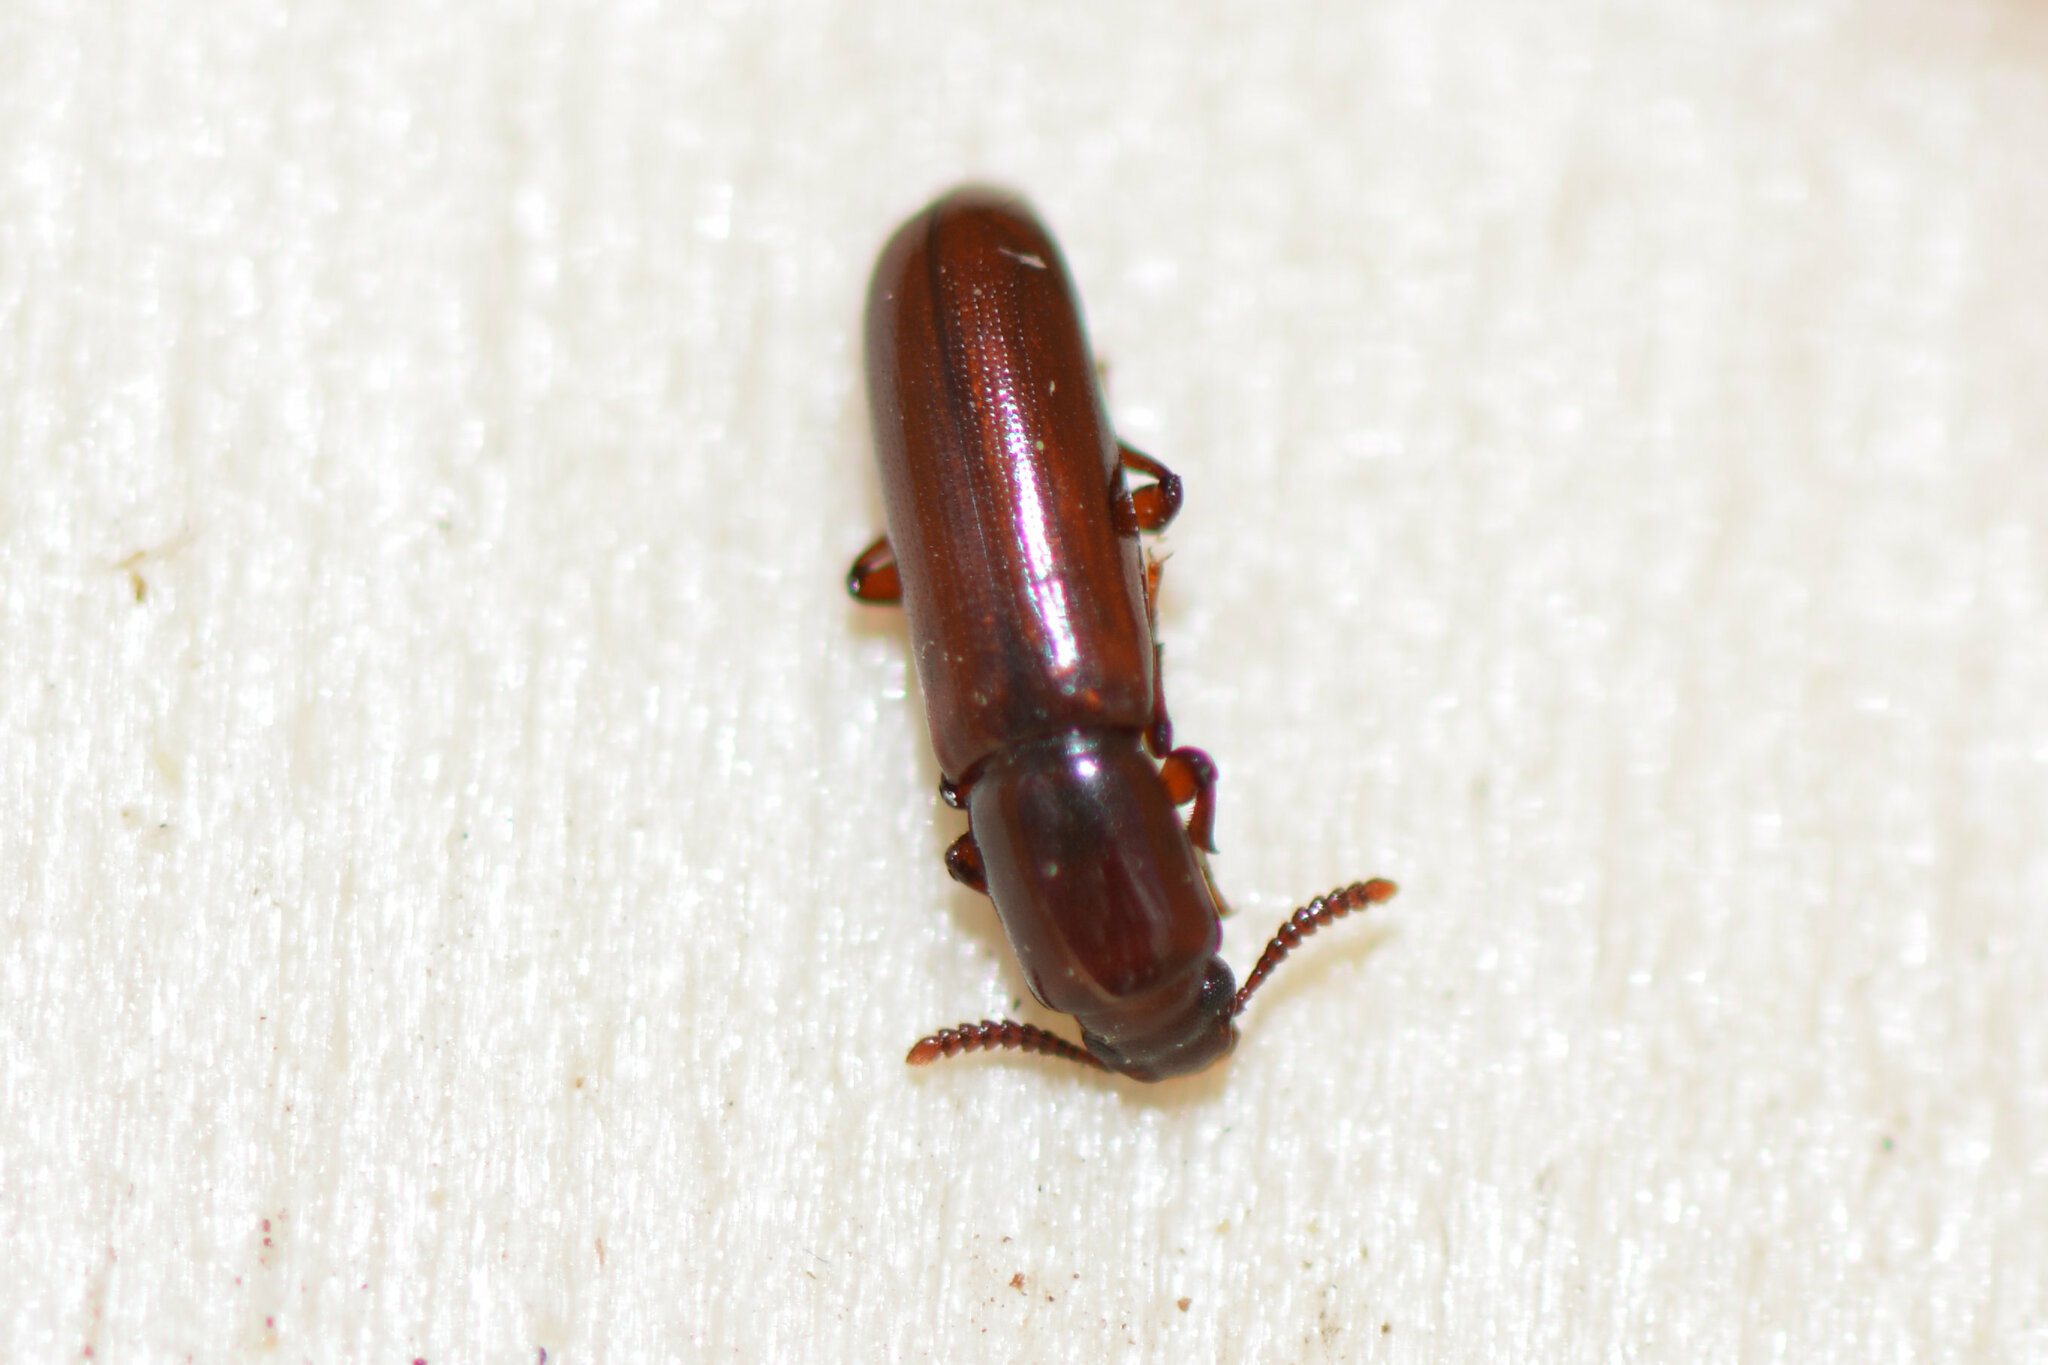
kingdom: Animalia
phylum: Arthropoda
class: Insecta
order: Coleoptera
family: Tenebrionidae
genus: Corticeus
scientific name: Corticeus unicolor
